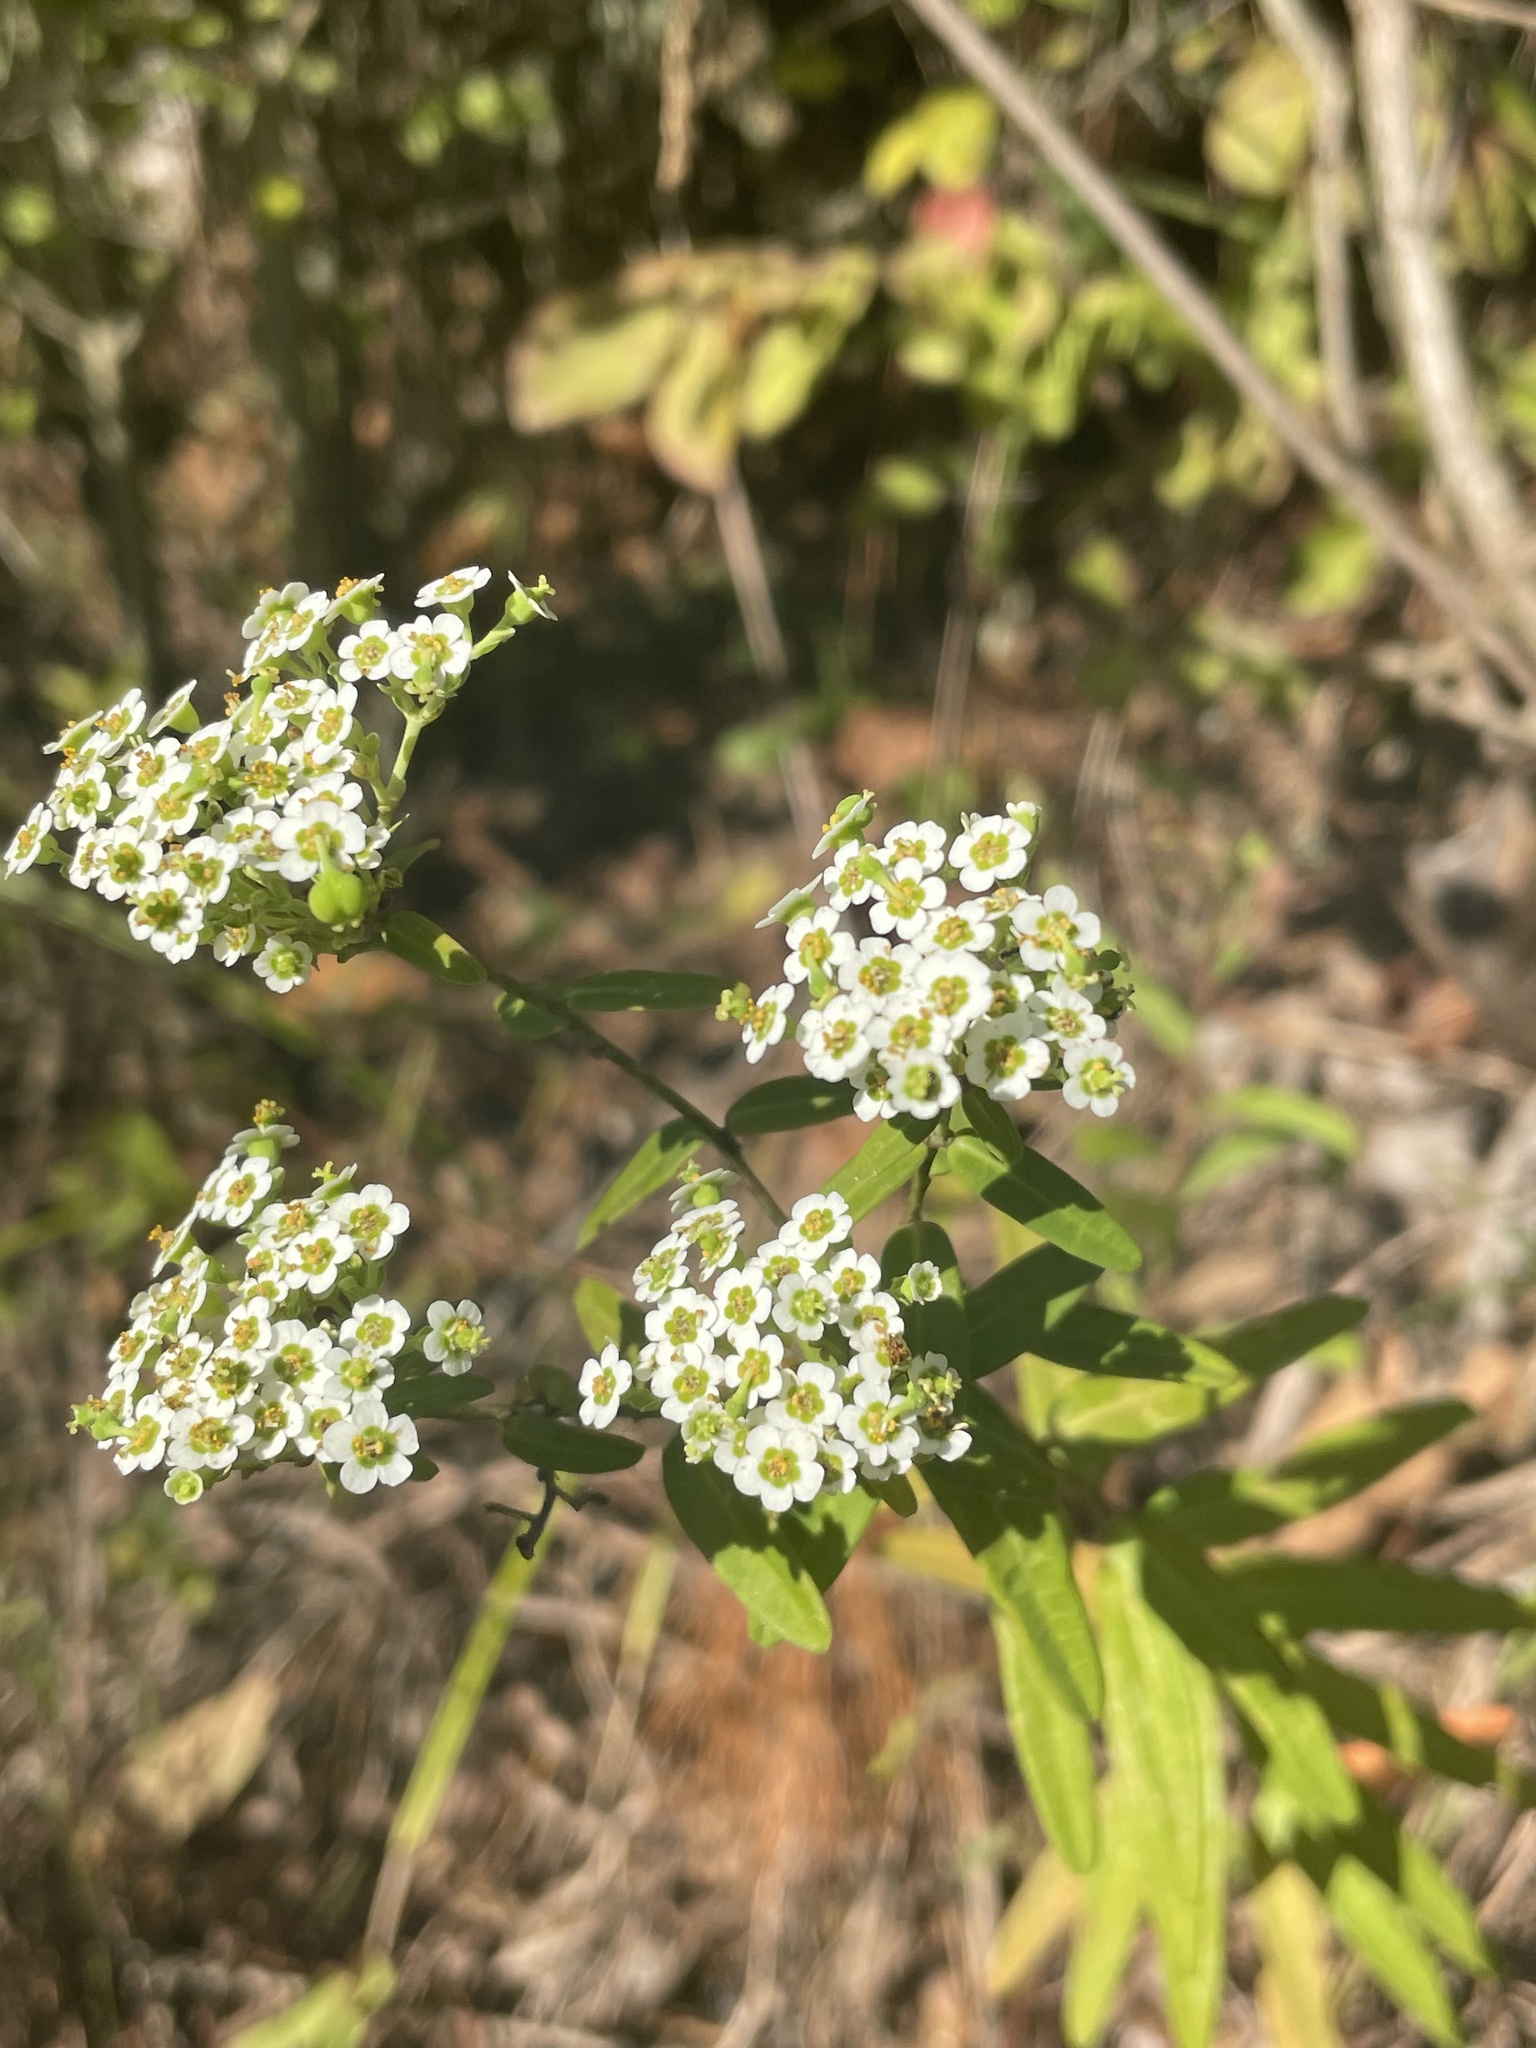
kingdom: Plantae
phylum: Tracheophyta
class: Magnoliopsida
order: Malpighiales
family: Euphorbiaceae
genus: Euphorbia
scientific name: Euphorbia corollata
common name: Flowering spurge
